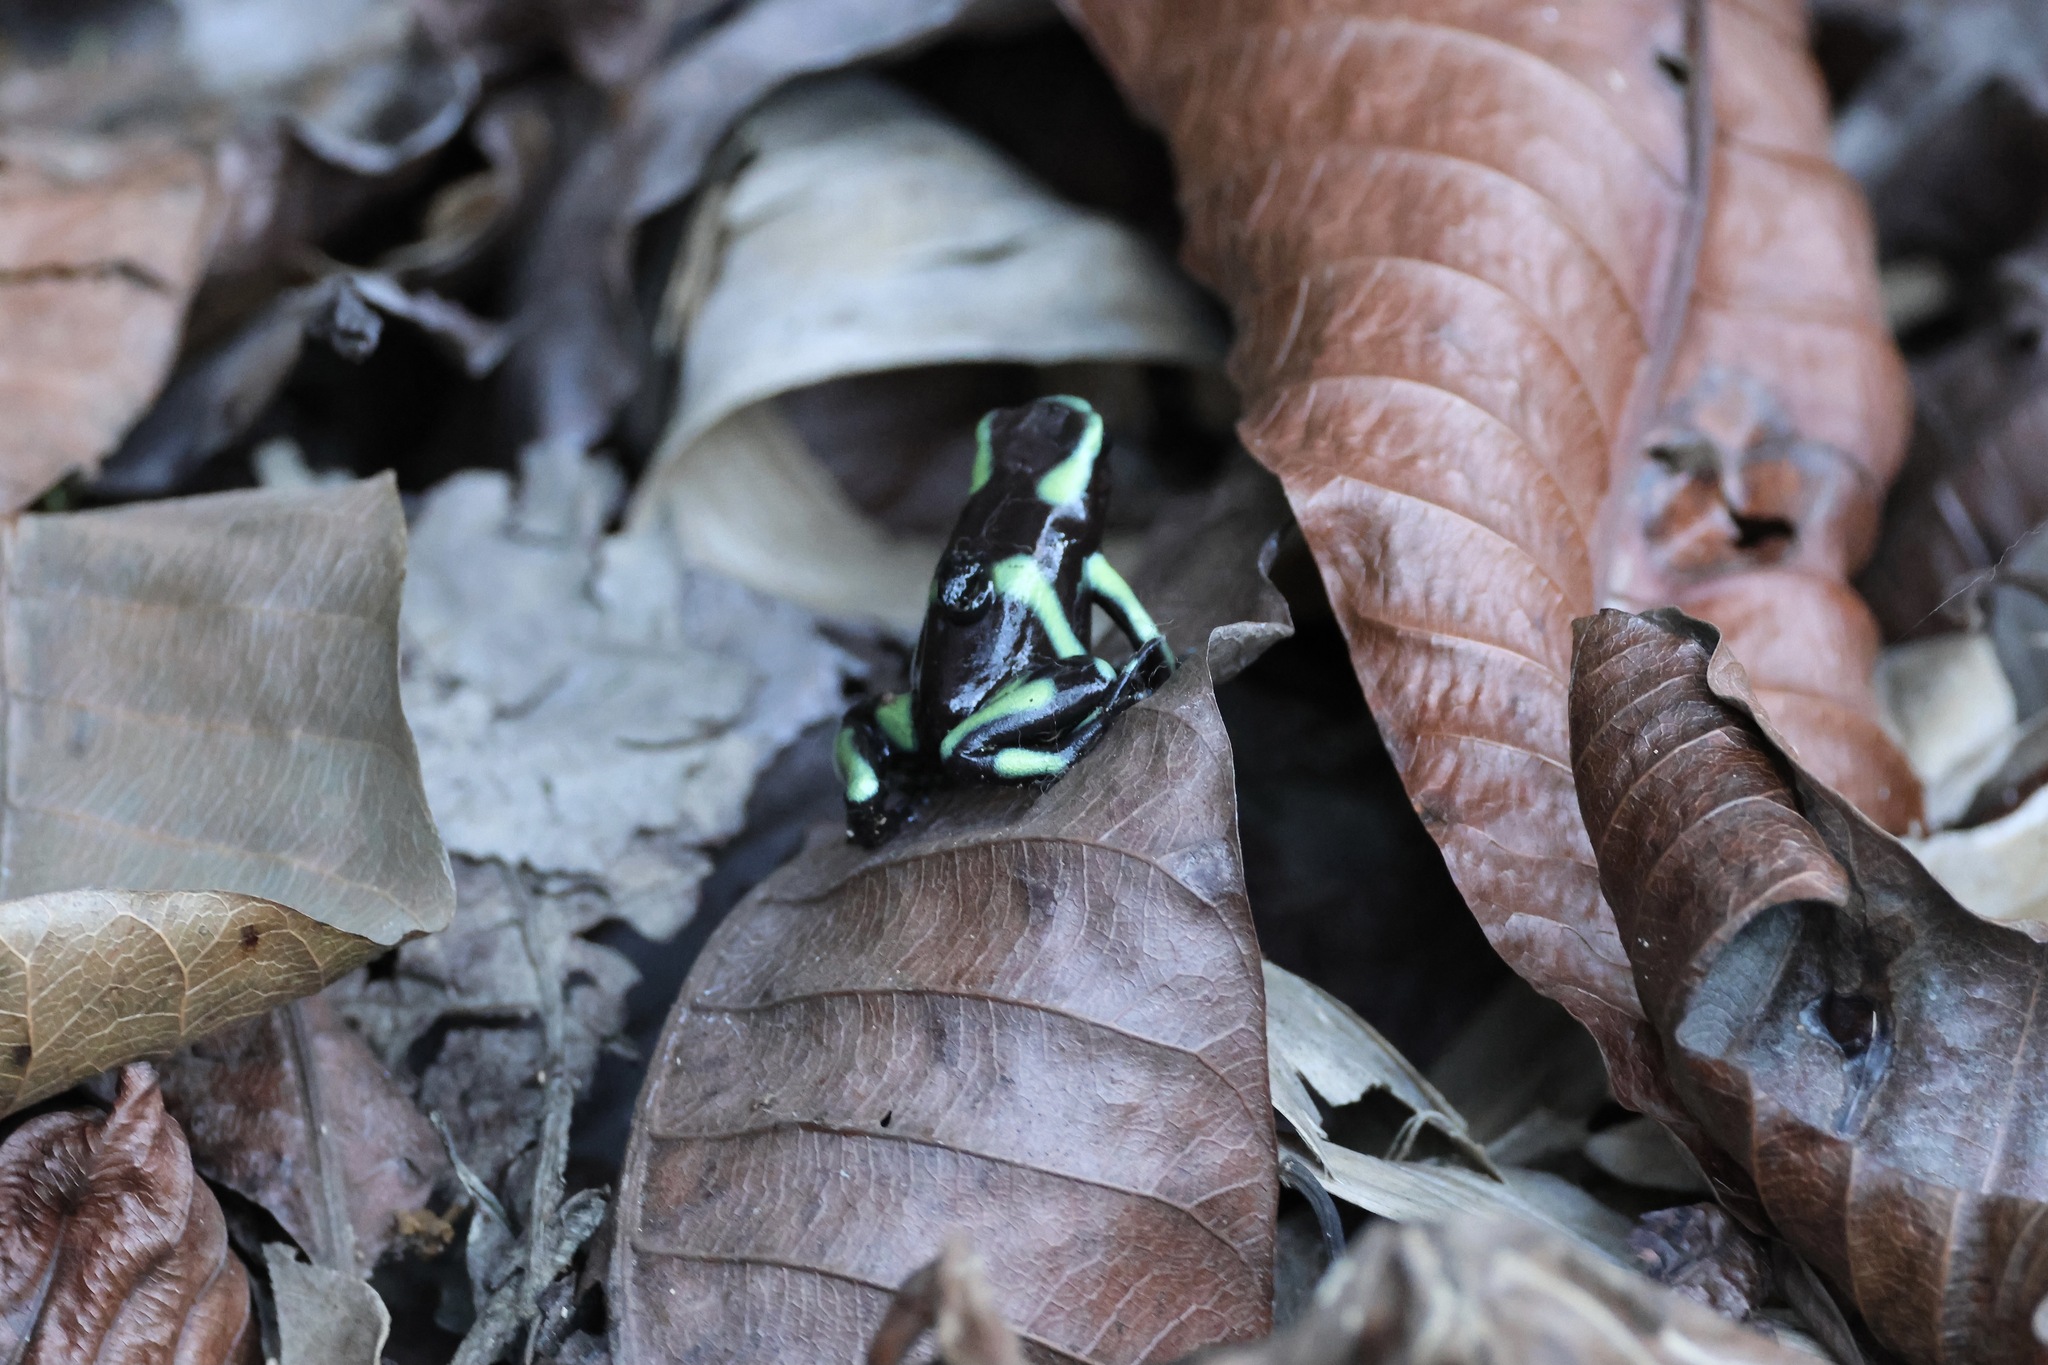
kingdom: Animalia
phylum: Chordata
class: Amphibia
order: Anura
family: Dendrobatidae
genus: Dendrobates
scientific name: Dendrobates auratus
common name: Green and black poison dart frog
